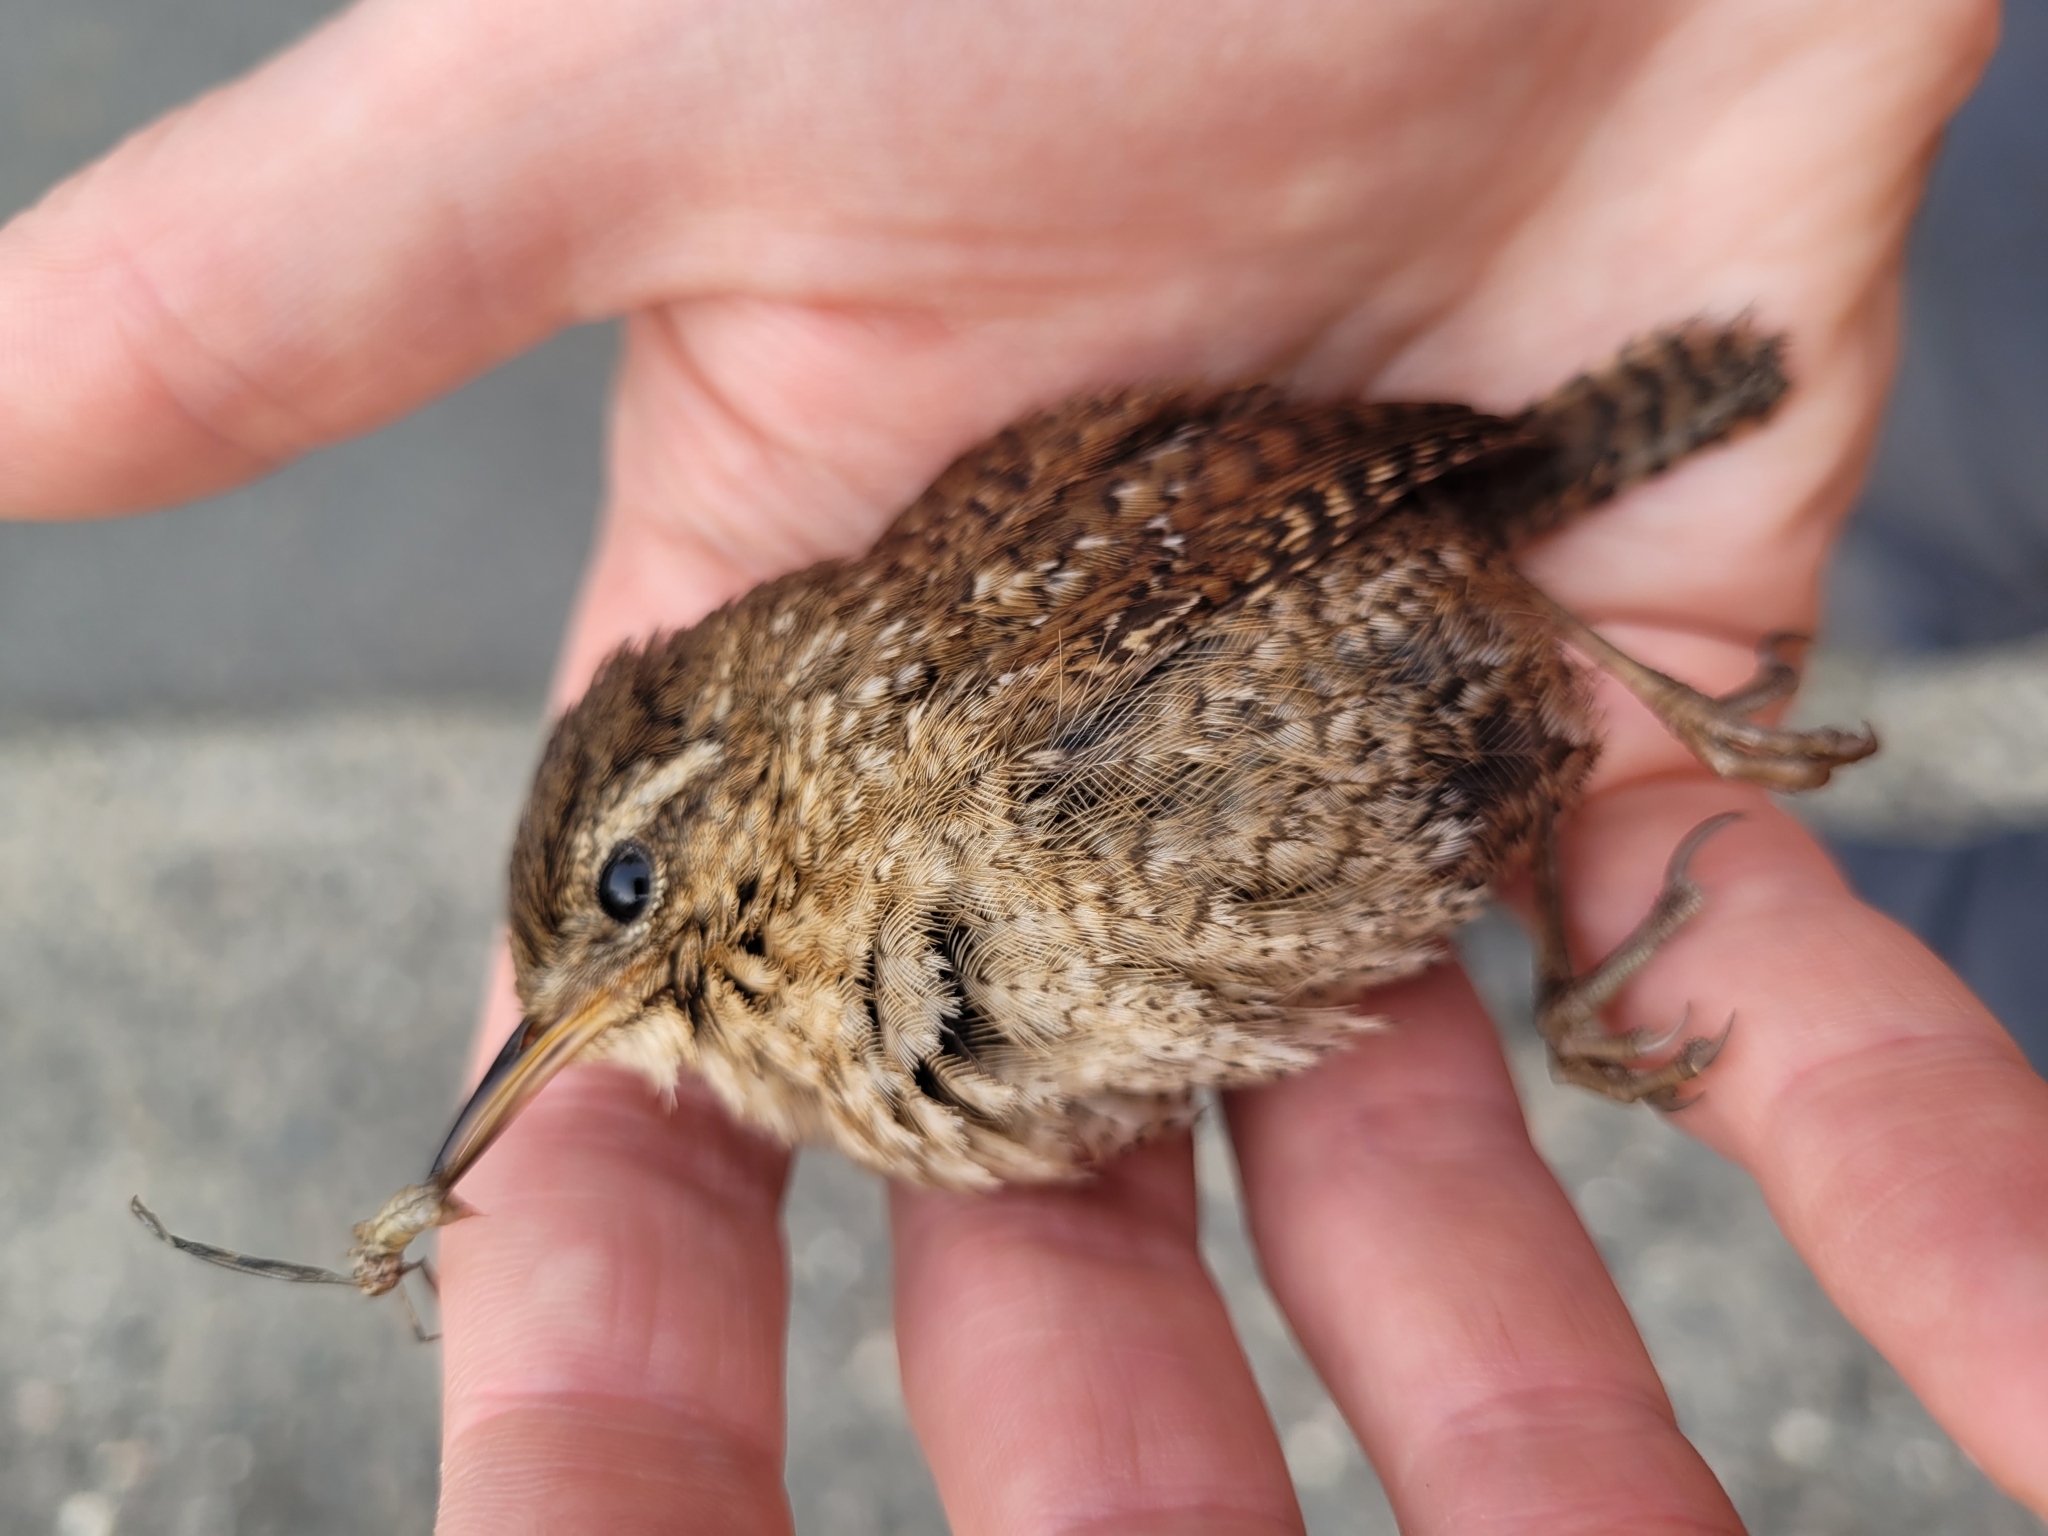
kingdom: Animalia
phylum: Chordata
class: Aves
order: Passeriformes
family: Troglodytidae
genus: Troglodytes
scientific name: Troglodytes hiemalis
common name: Winter wren
